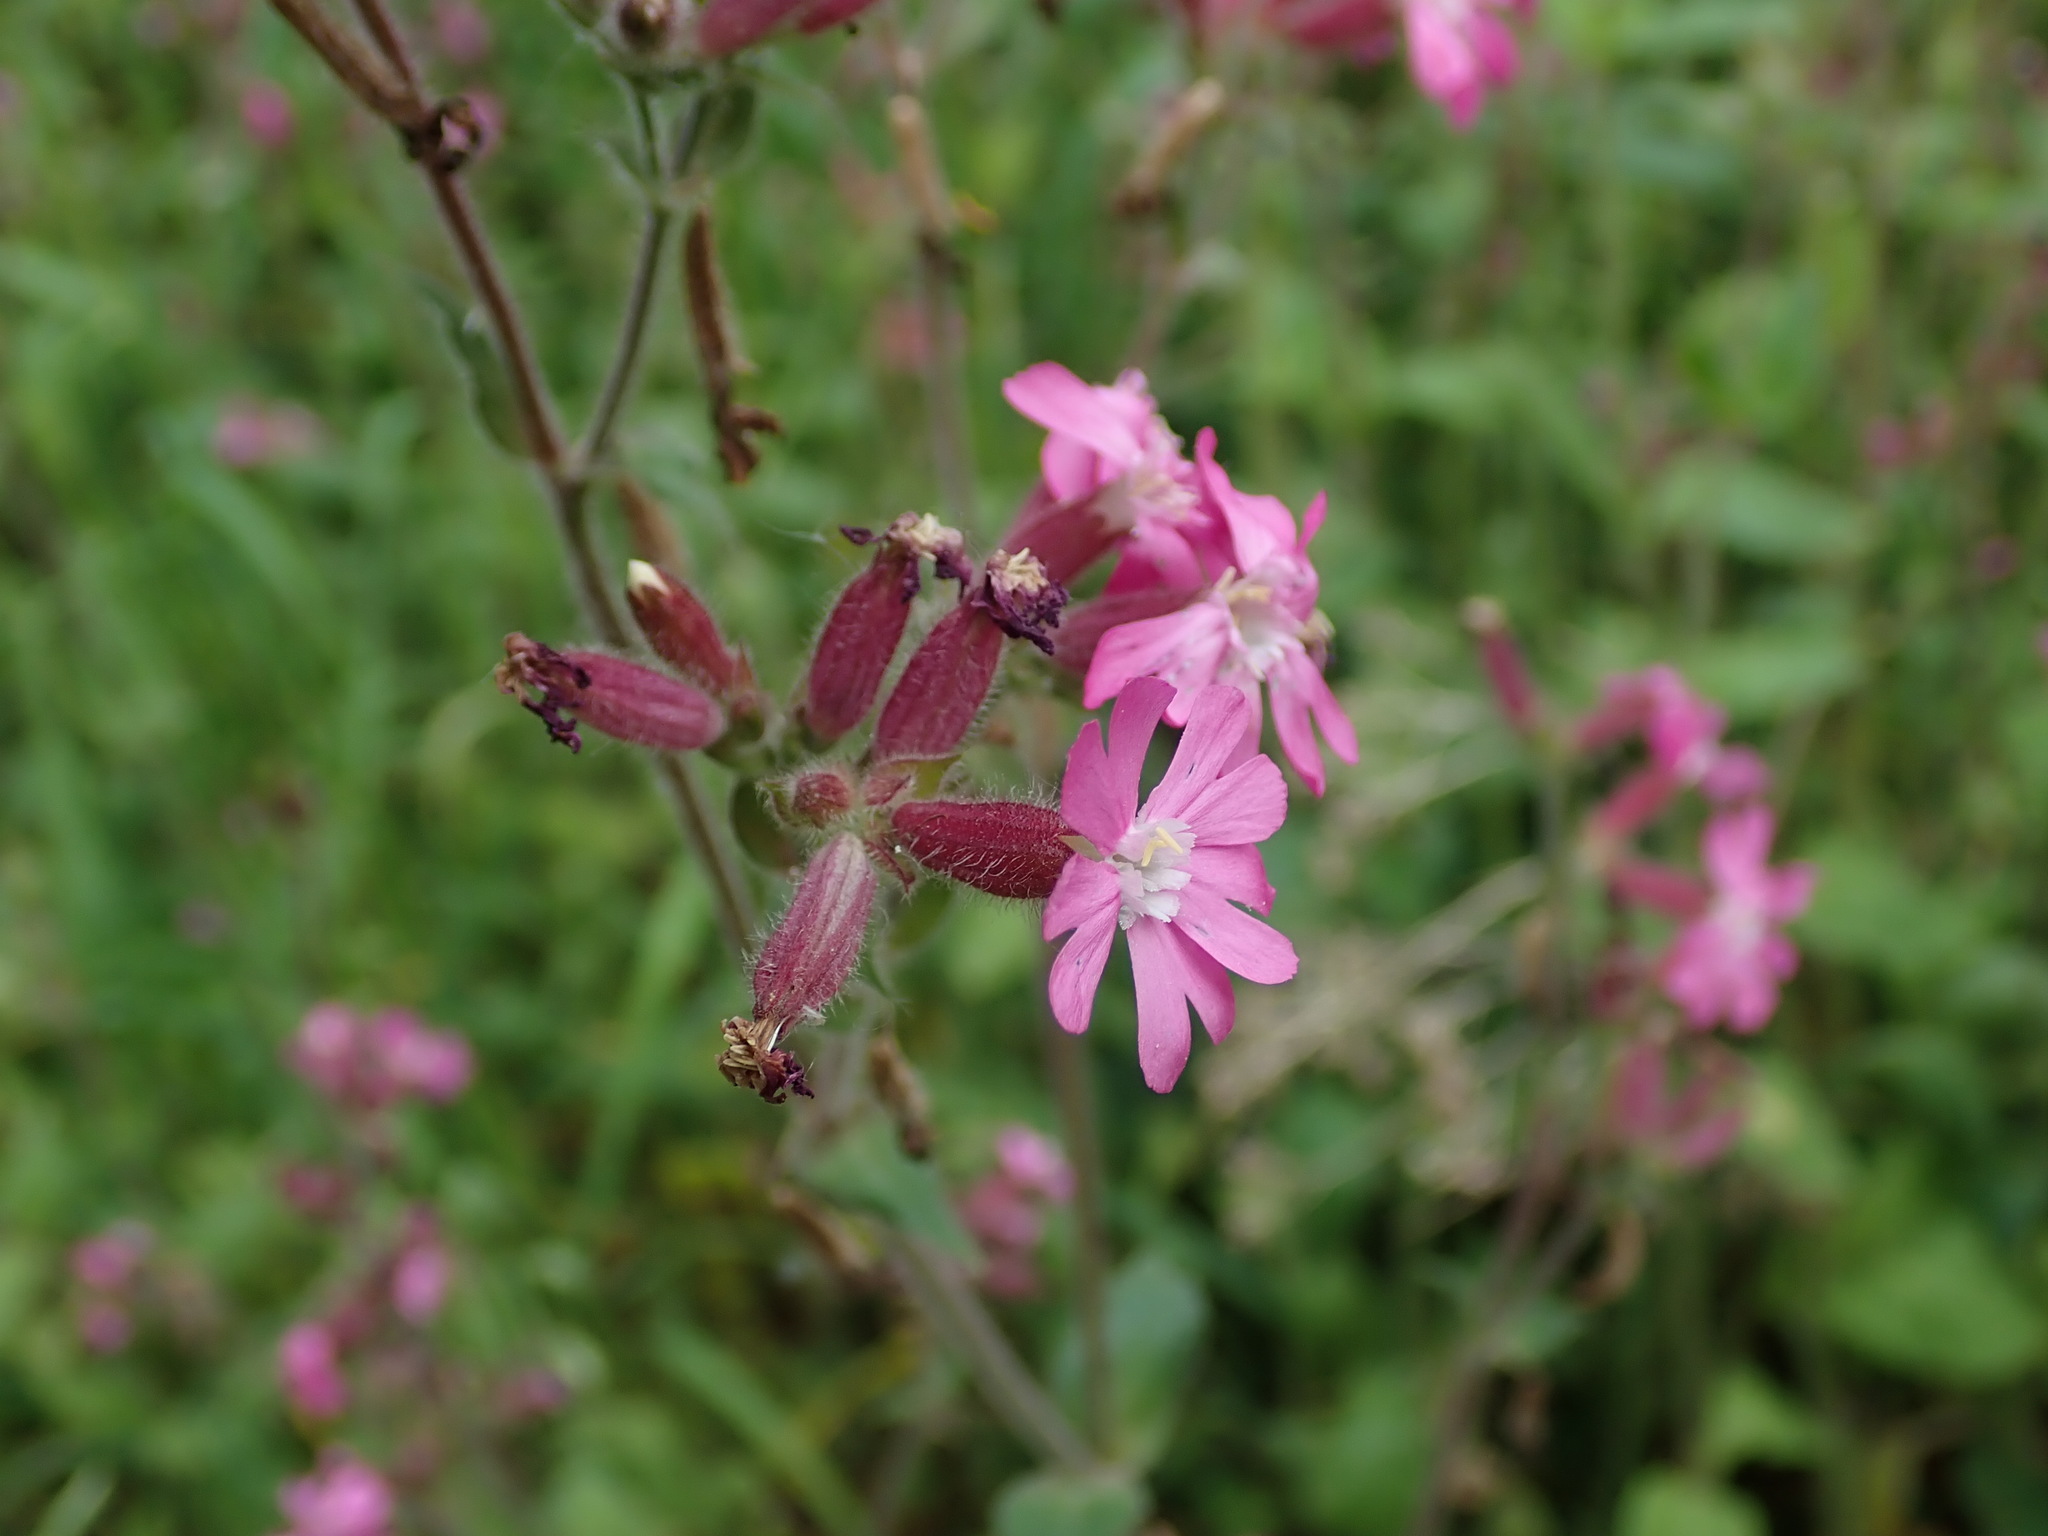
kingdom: Plantae
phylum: Tracheophyta
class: Magnoliopsida
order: Caryophyllales
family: Caryophyllaceae
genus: Silene
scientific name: Silene dioica
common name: Red campion
